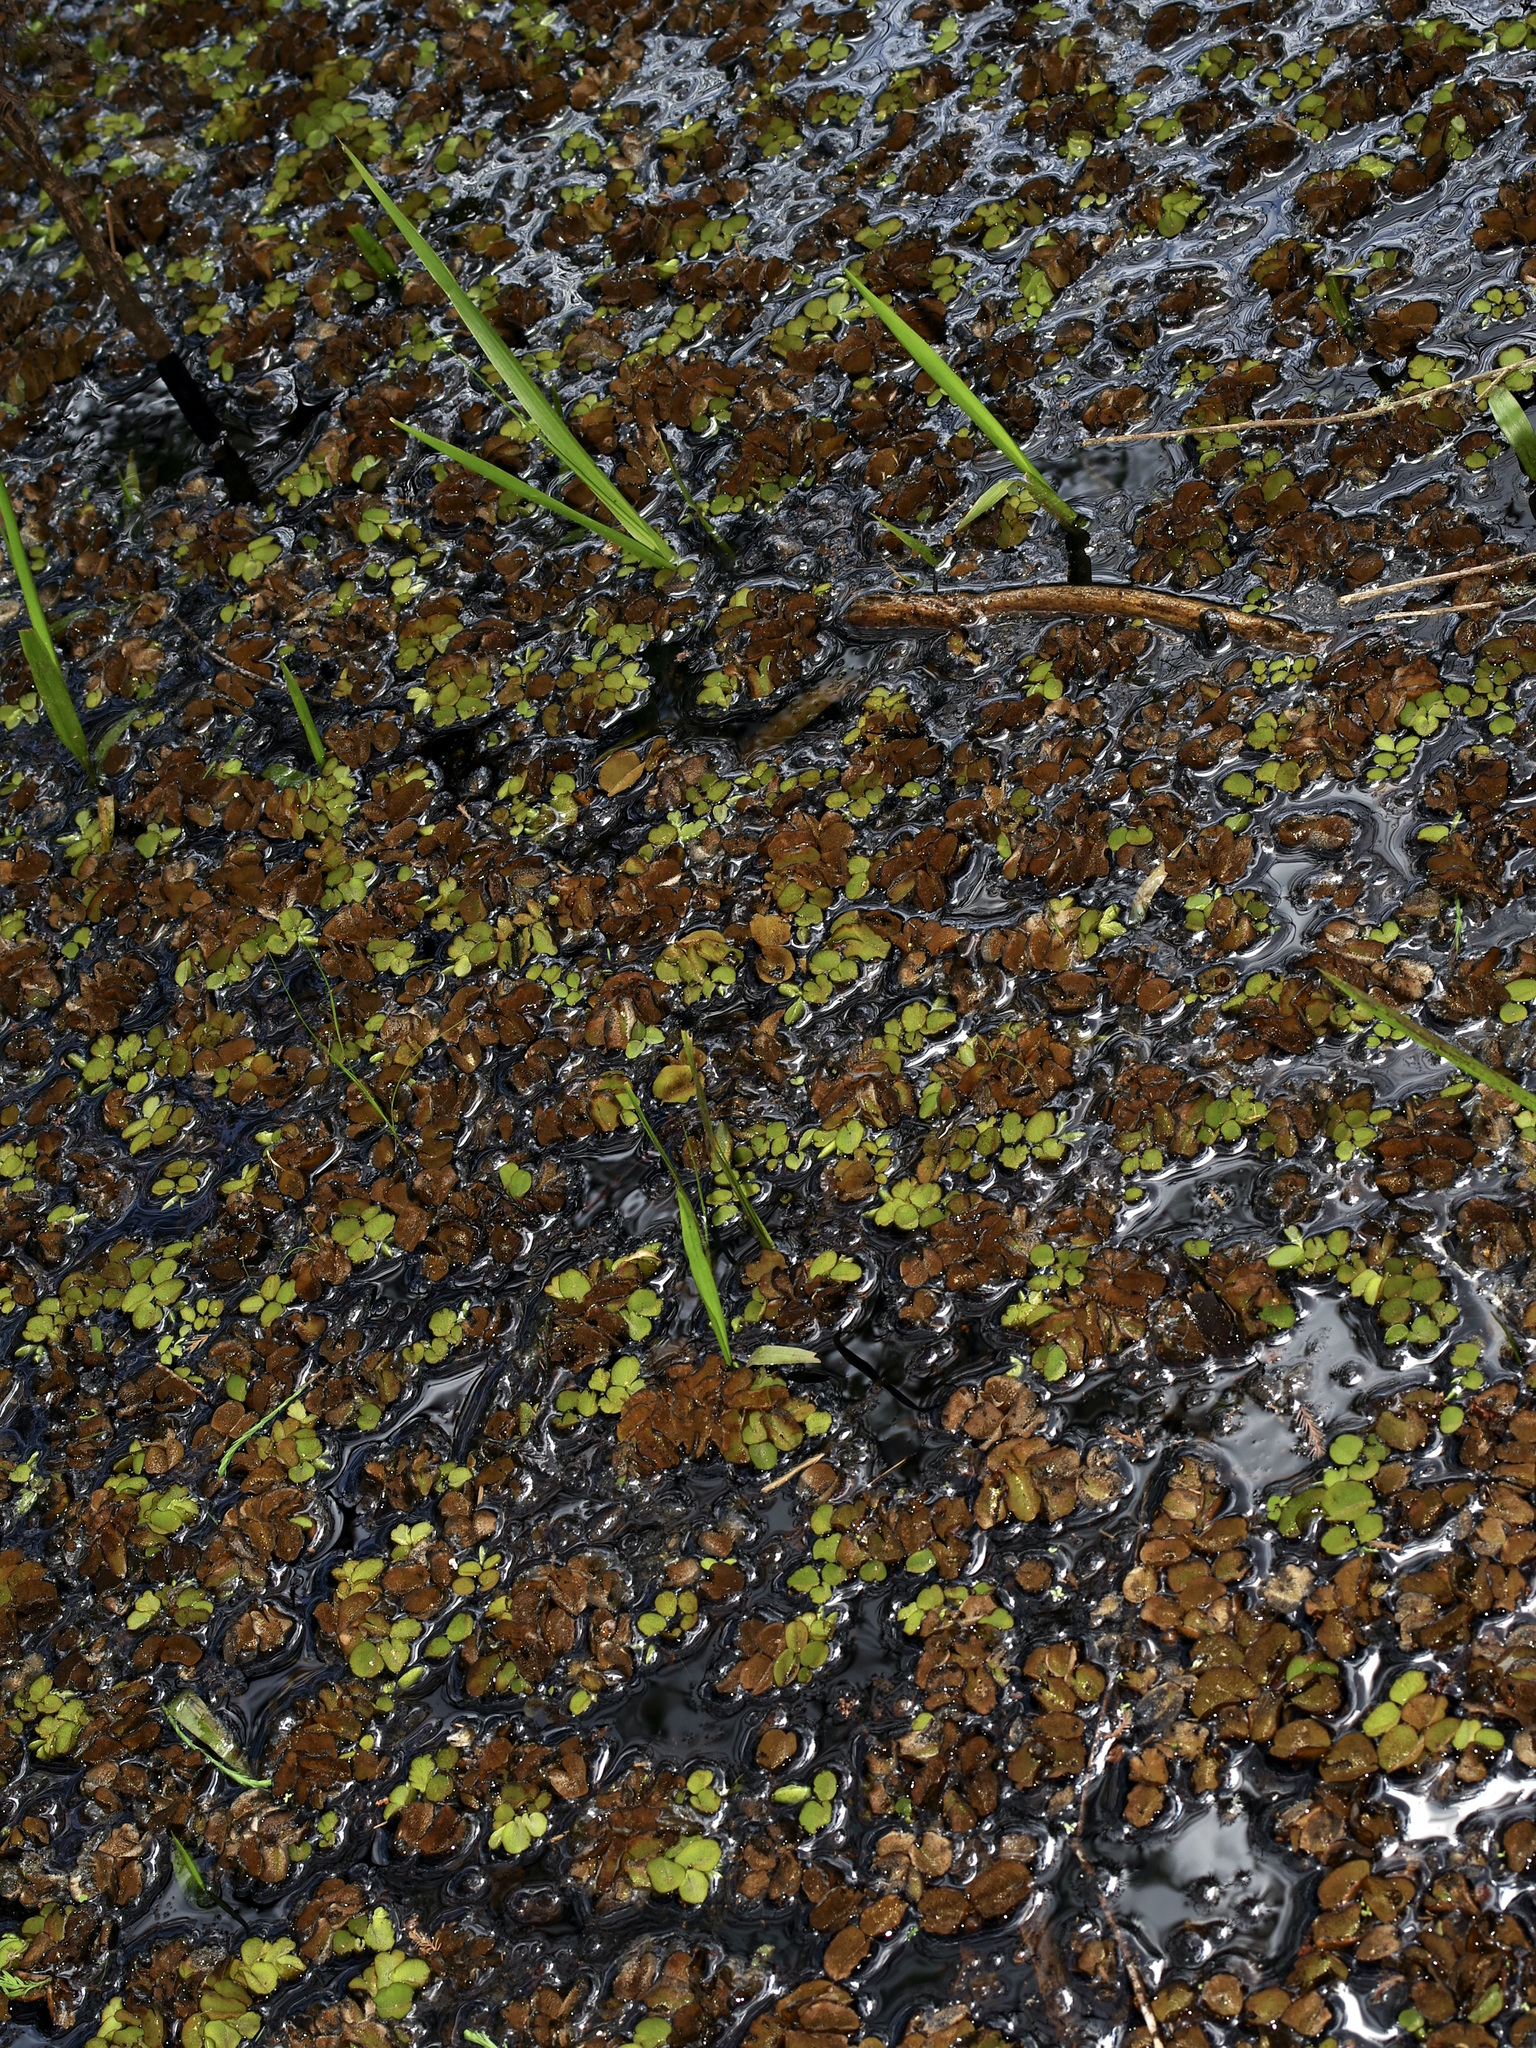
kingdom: Plantae
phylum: Tracheophyta
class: Polypodiopsida
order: Salviniales
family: Salviniaceae
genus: Salvinia
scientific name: Salvinia minima
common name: Water spangles
